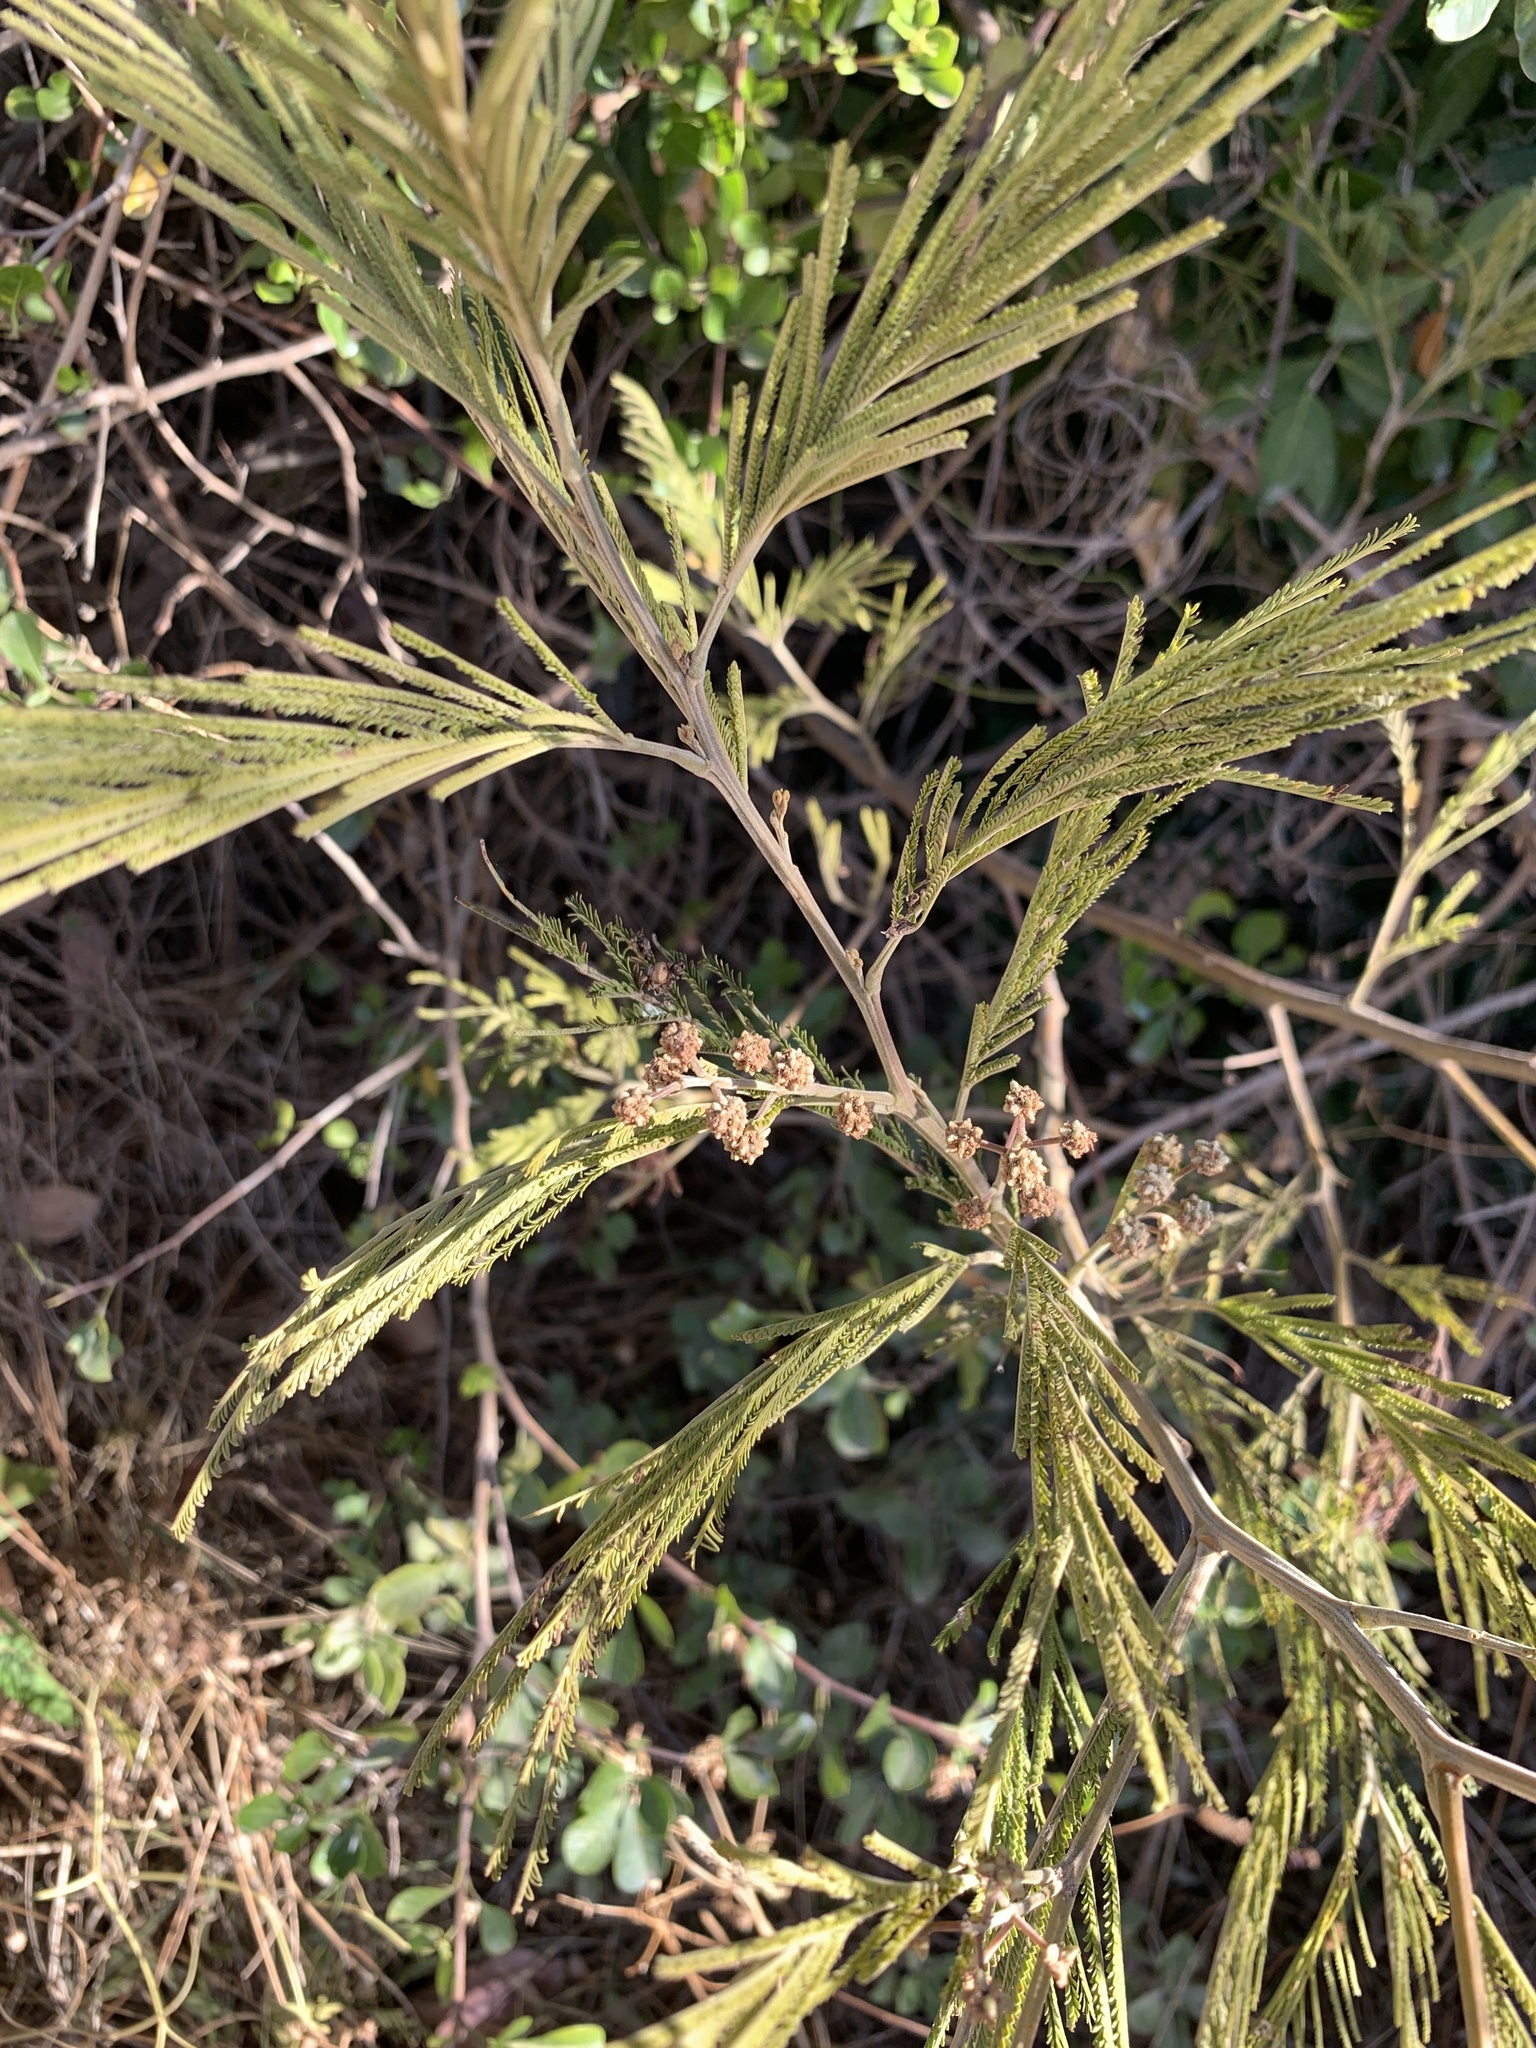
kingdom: Plantae
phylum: Tracheophyta
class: Magnoliopsida
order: Fabales
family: Fabaceae
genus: Acacia
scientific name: Acacia mearnsii
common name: Black wattle
